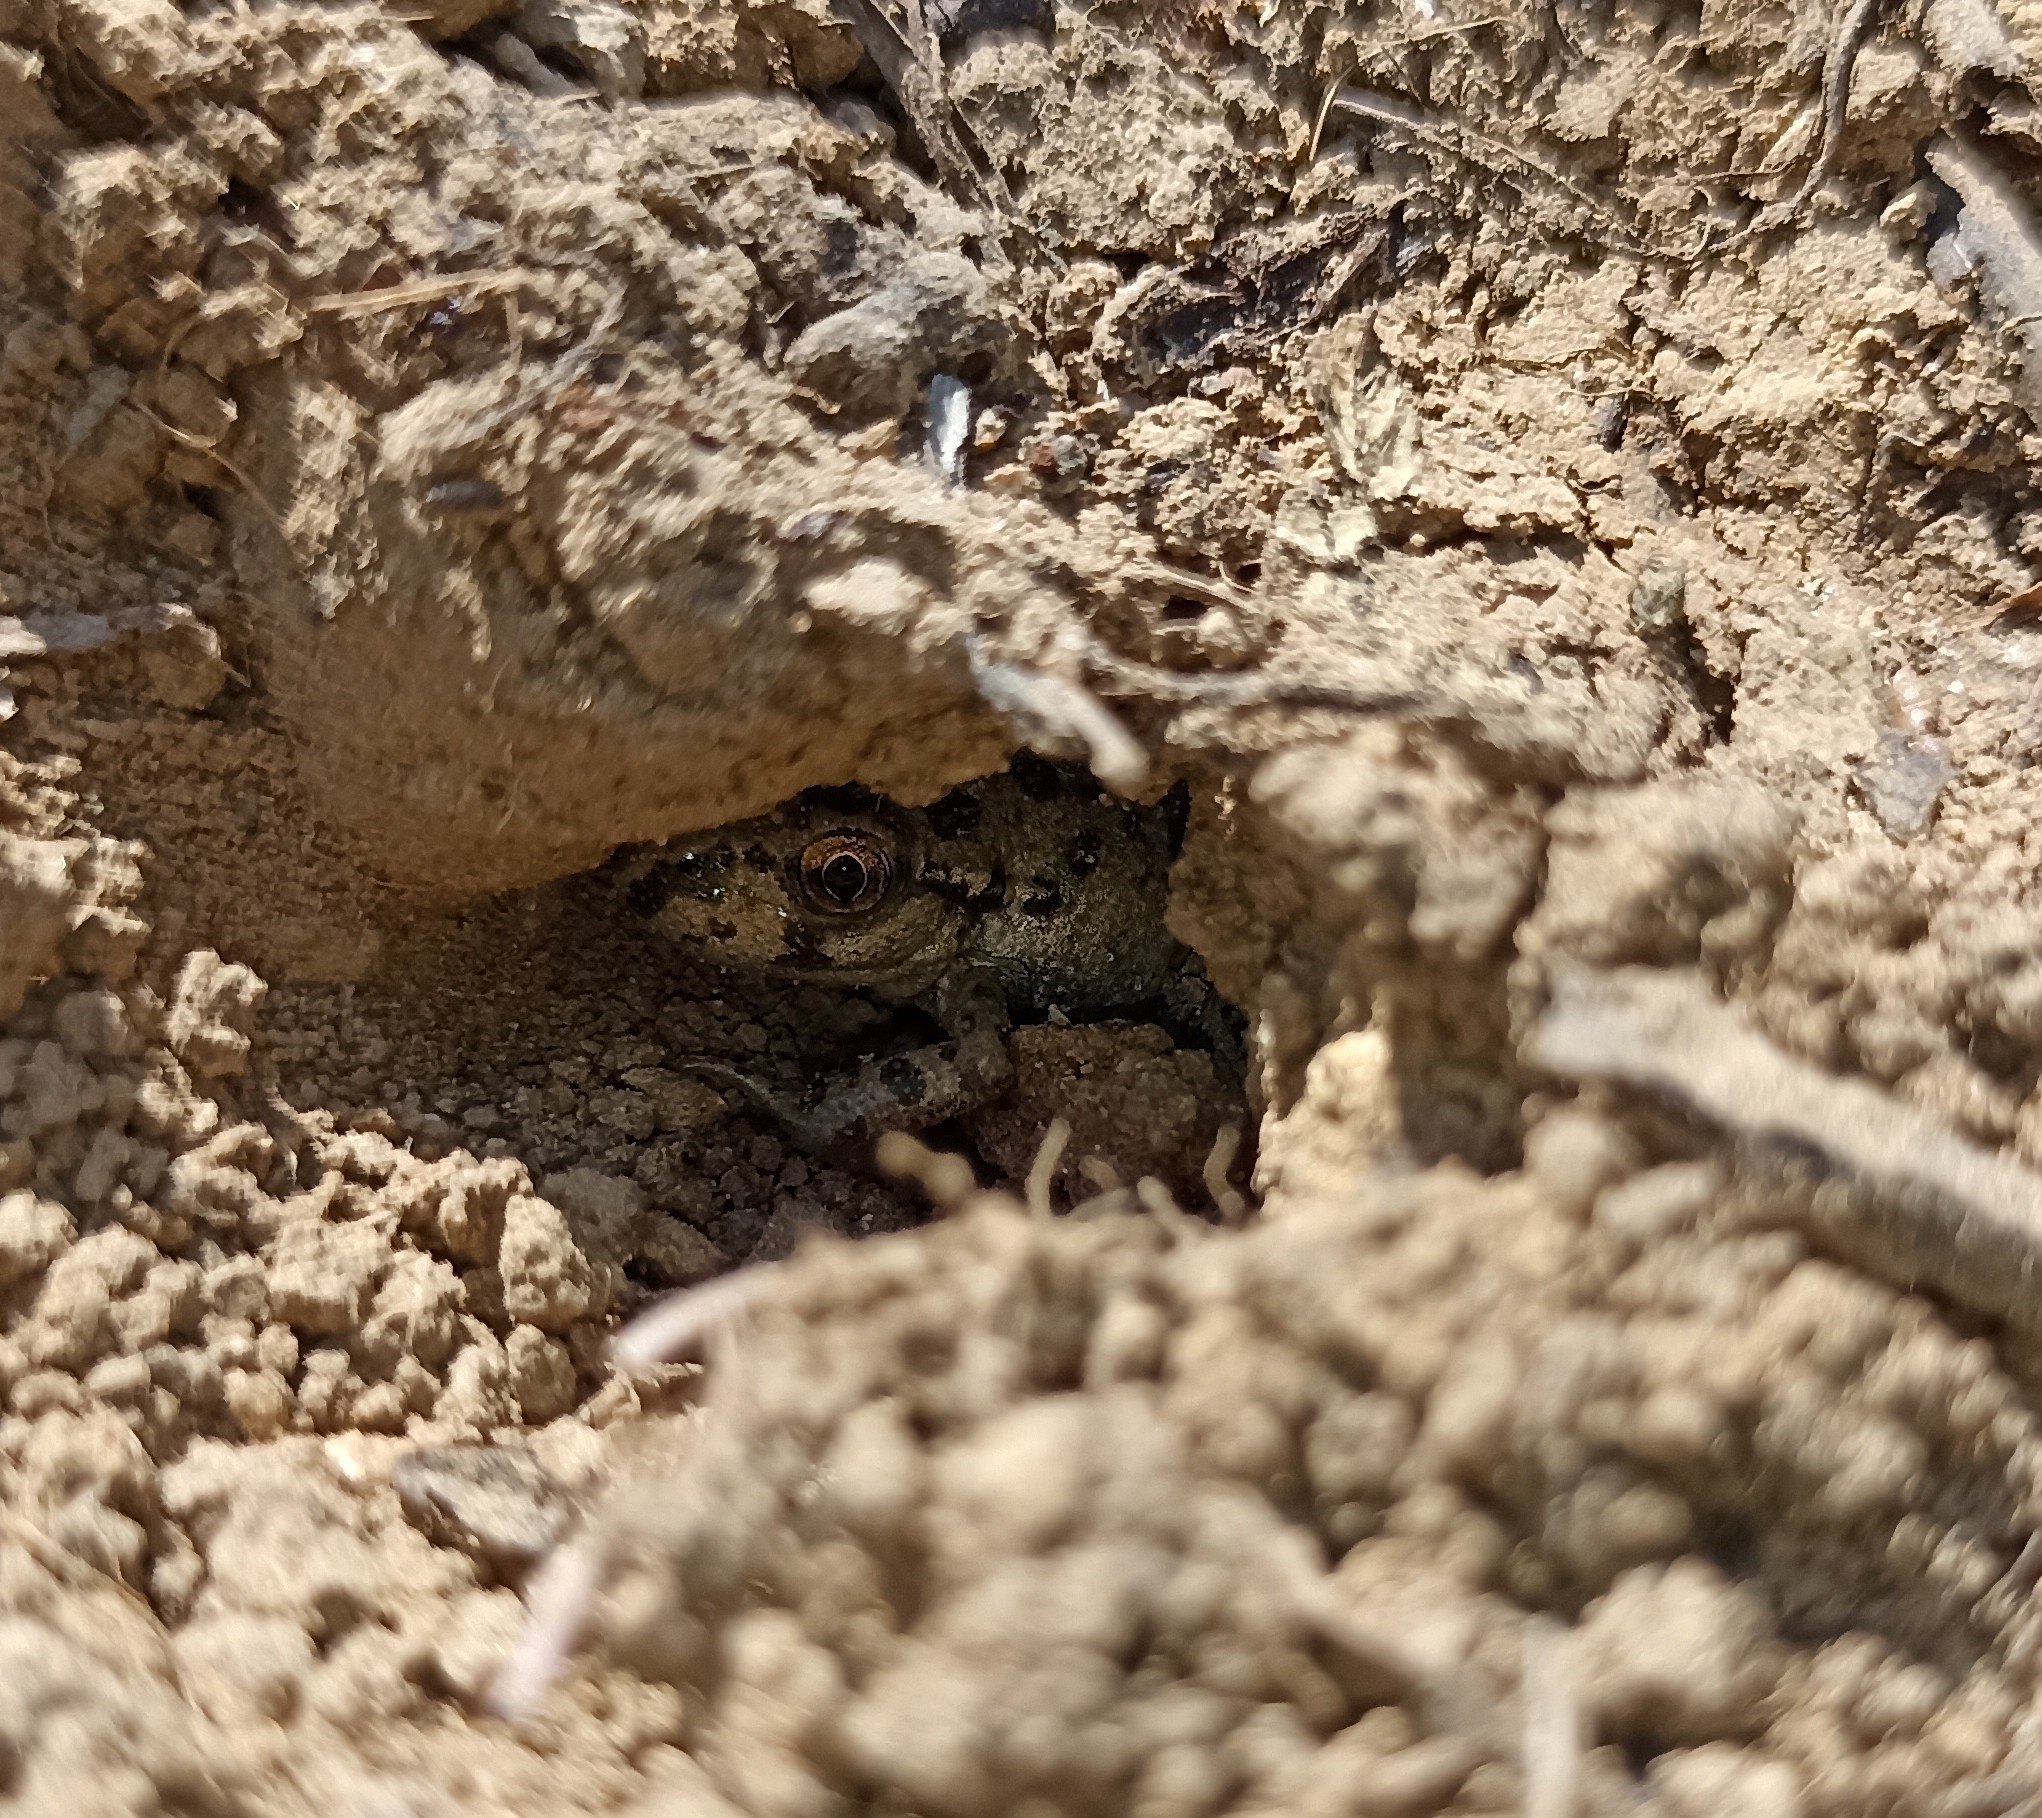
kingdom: Animalia
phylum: Chordata
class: Amphibia
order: Anura
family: Pelodytidae
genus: Pelodytes
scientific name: Pelodytes punctatus
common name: Parsley frog
